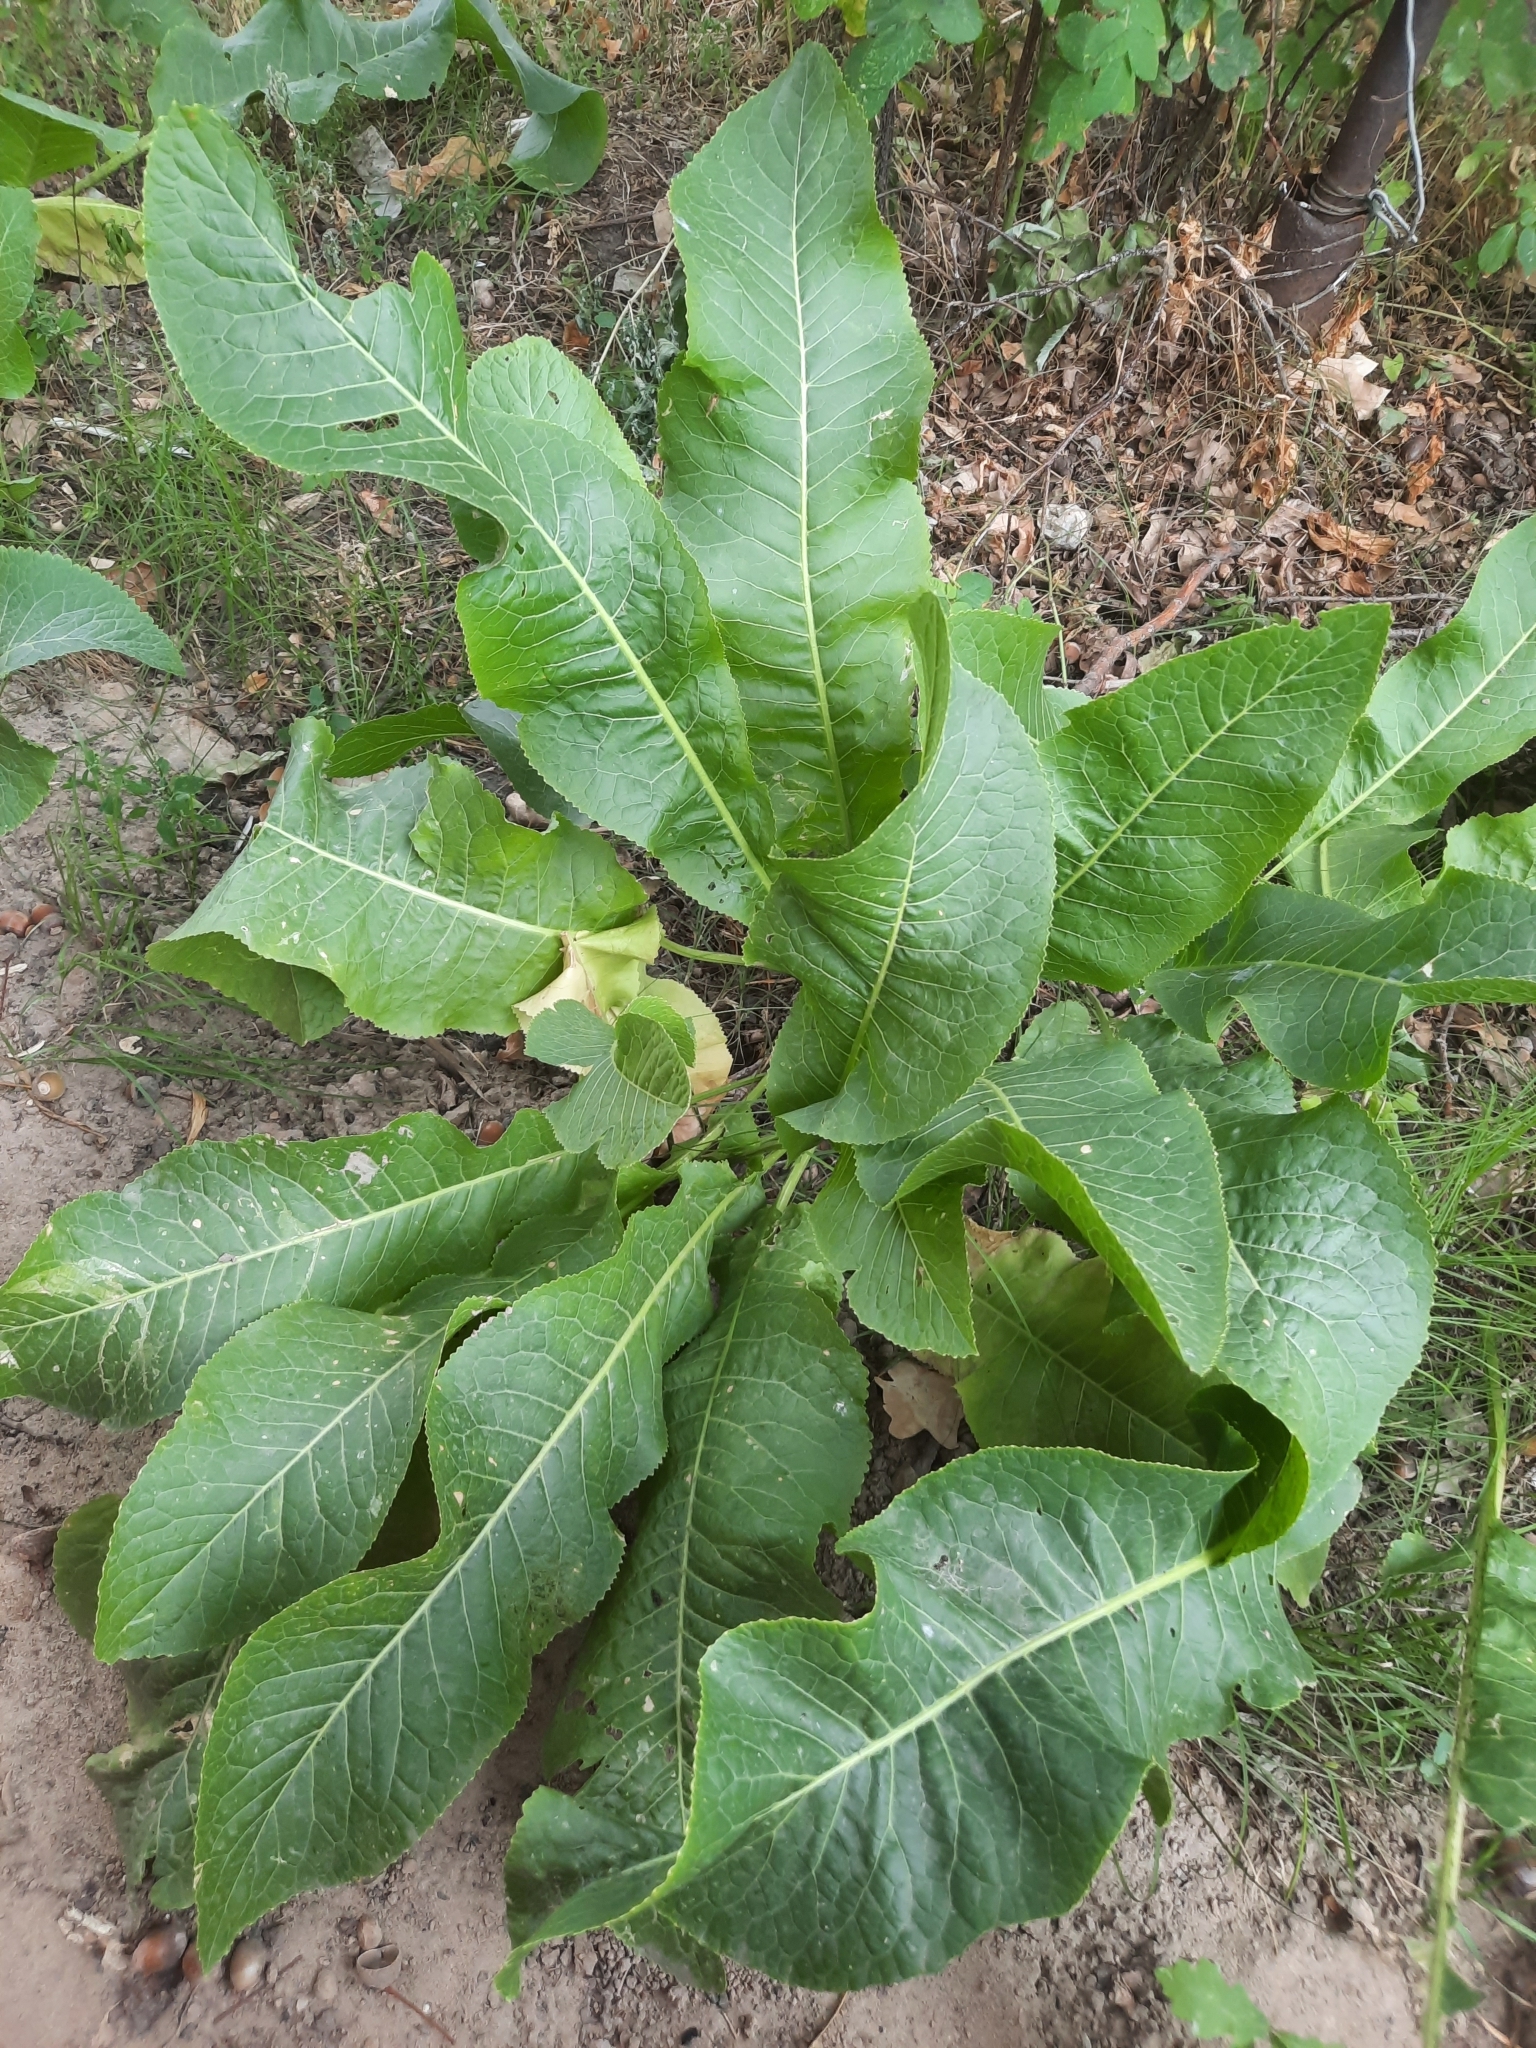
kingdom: Plantae
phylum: Tracheophyta
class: Magnoliopsida
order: Brassicales
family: Brassicaceae
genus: Armoracia
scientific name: Armoracia rusticana
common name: Horseradish
